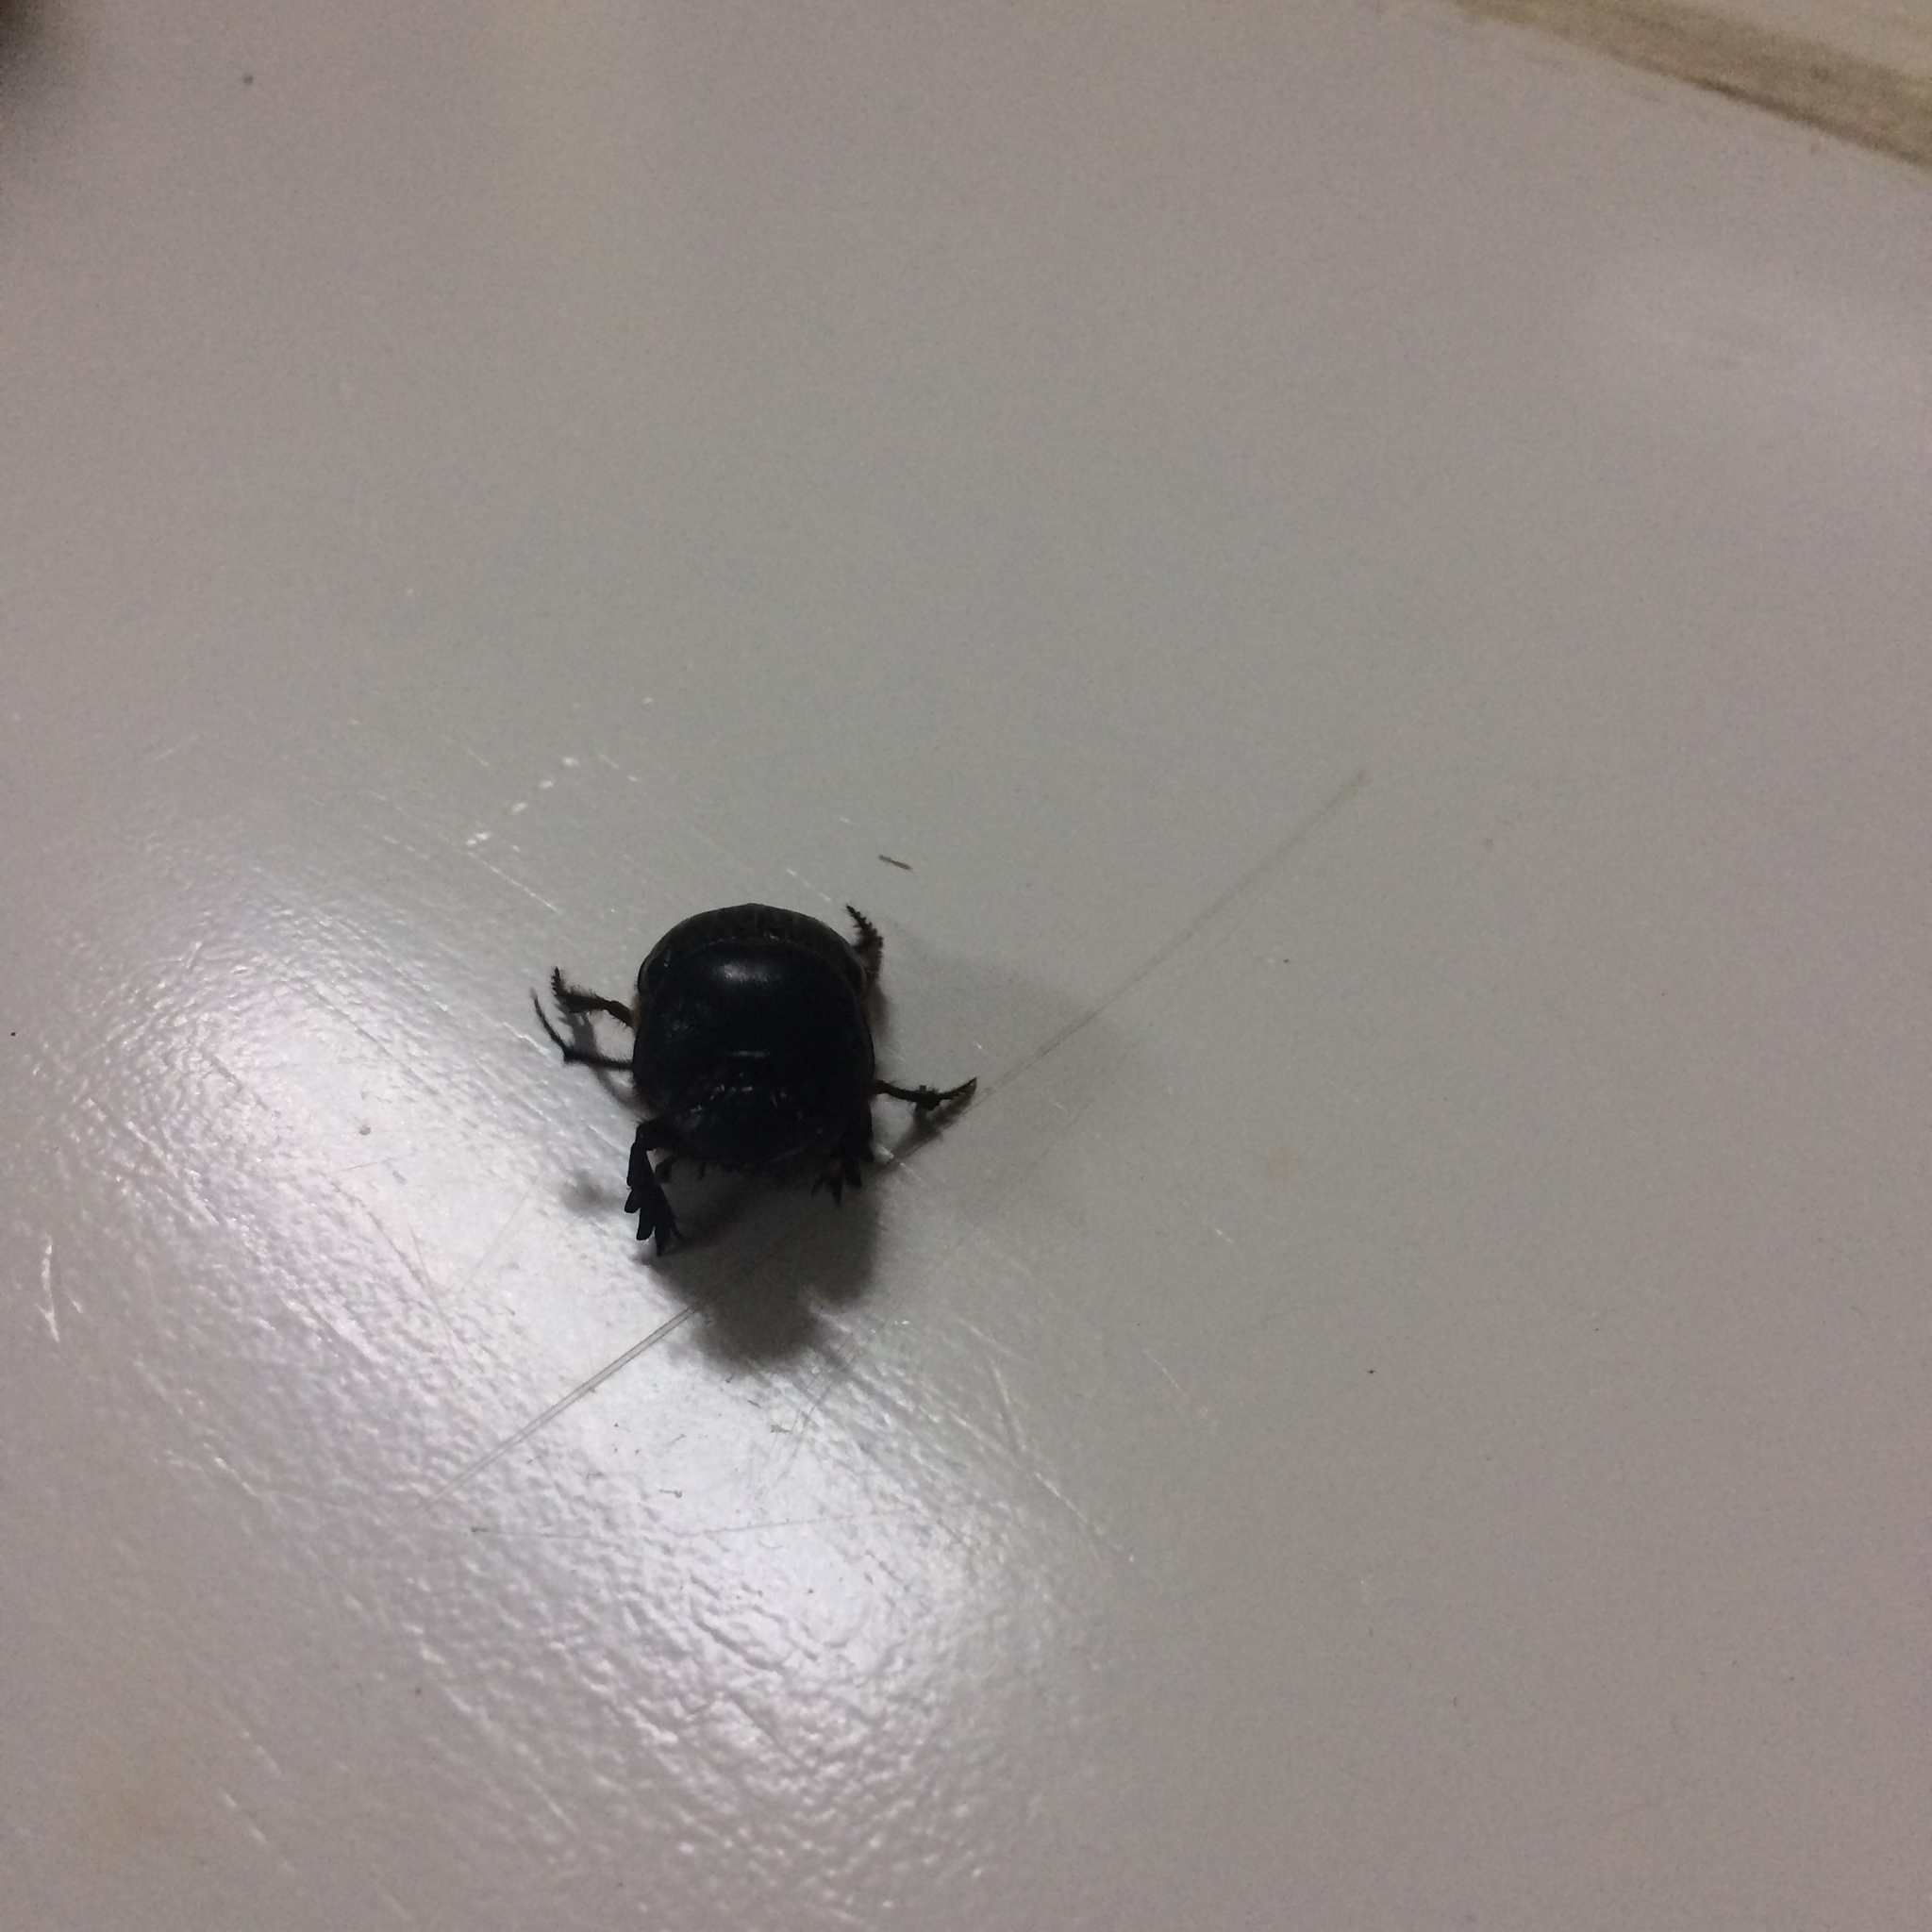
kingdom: Animalia
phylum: Arthropoda
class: Insecta
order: Coleoptera
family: Scarabaeidae
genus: Coprophanaeus
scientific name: Coprophanaeus corythus
